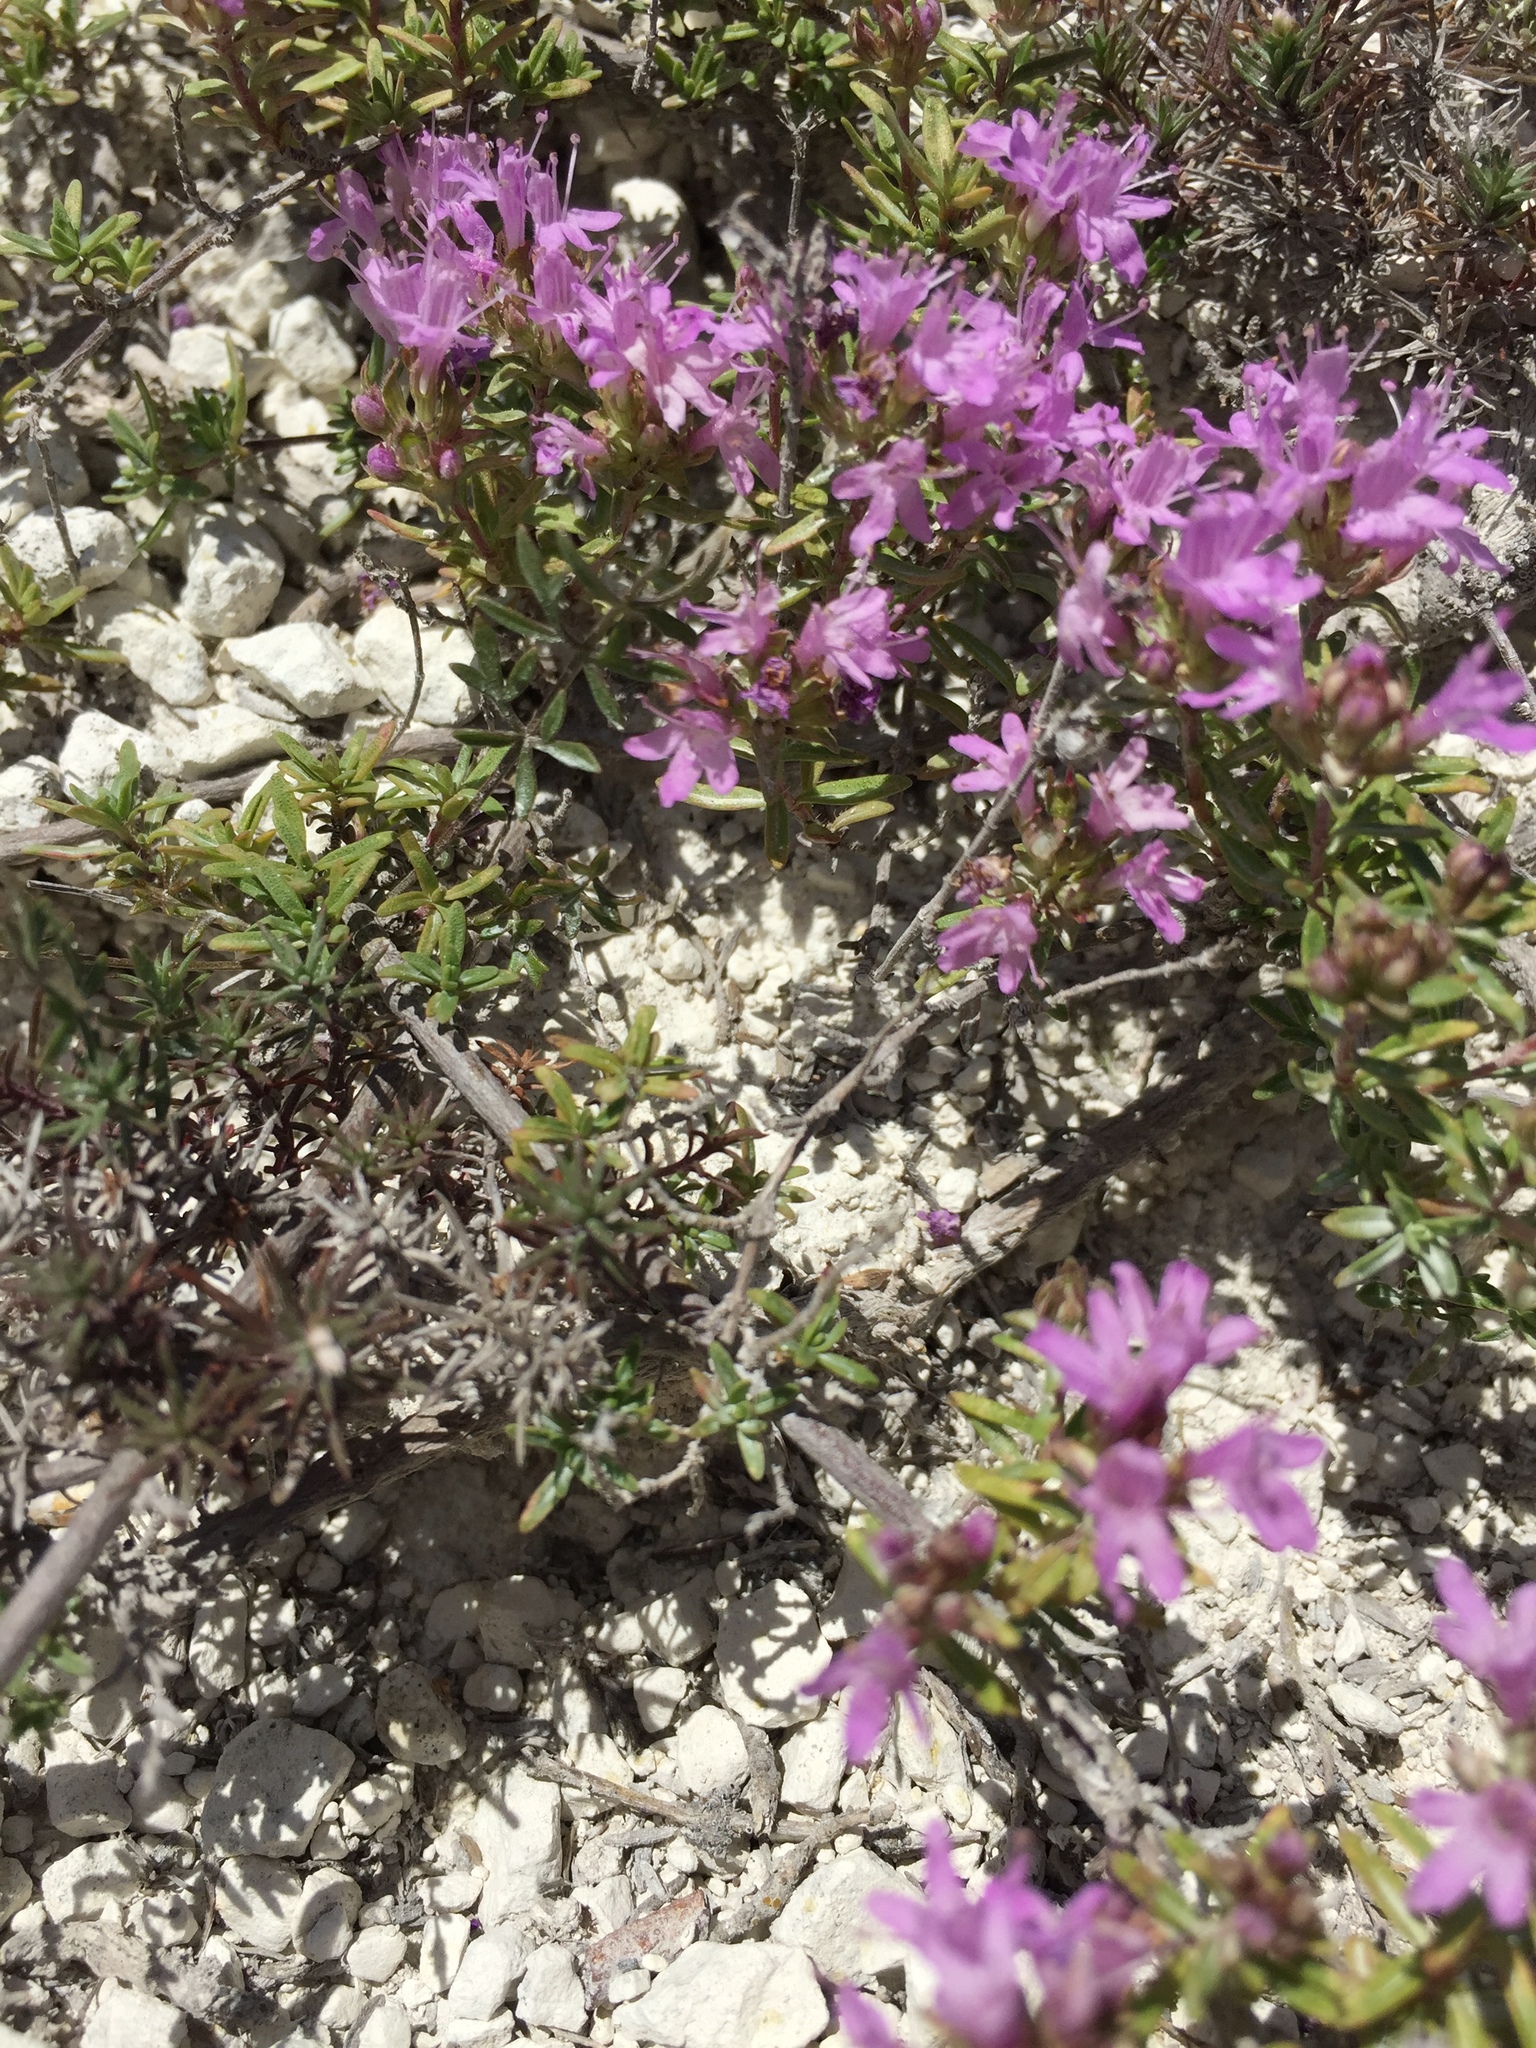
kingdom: Plantae
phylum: Tracheophyta
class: Magnoliopsida
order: Lamiales
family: Lamiaceae
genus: Thymus
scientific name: Thymus calcareus
